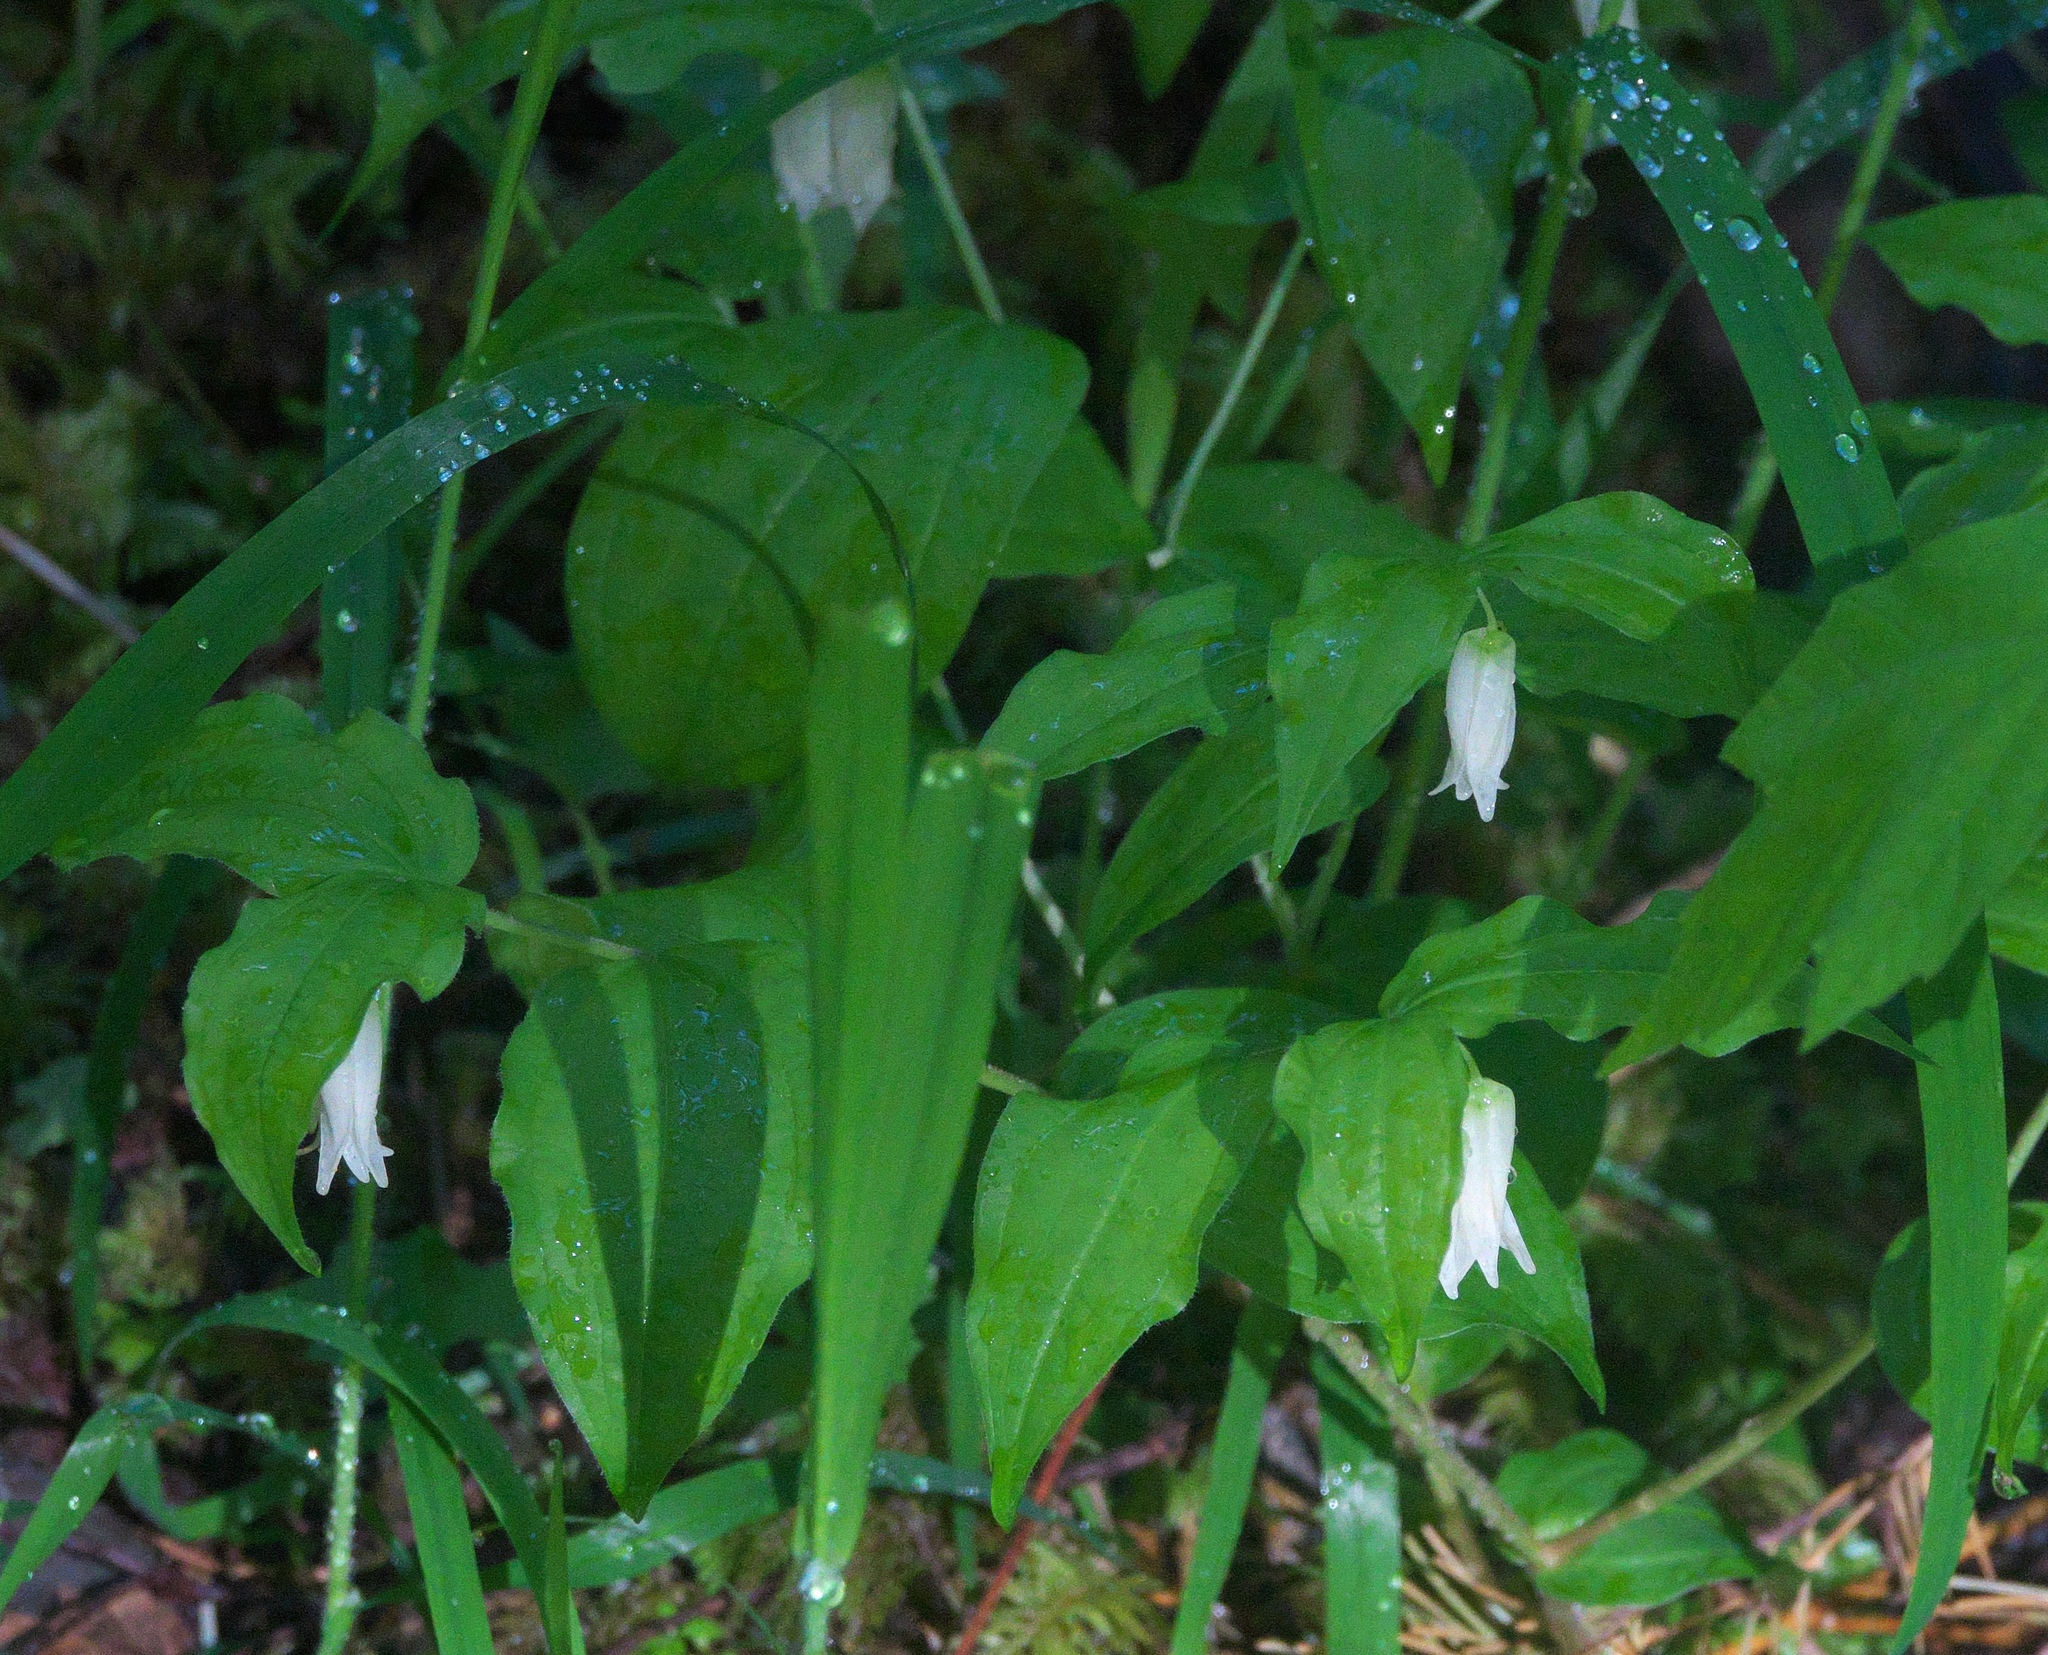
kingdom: Plantae
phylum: Tracheophyta
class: Liliopsida
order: Liliales
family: Liliaceae
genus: Prosartes
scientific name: Prosartes smithii
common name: Fairy-lantern
